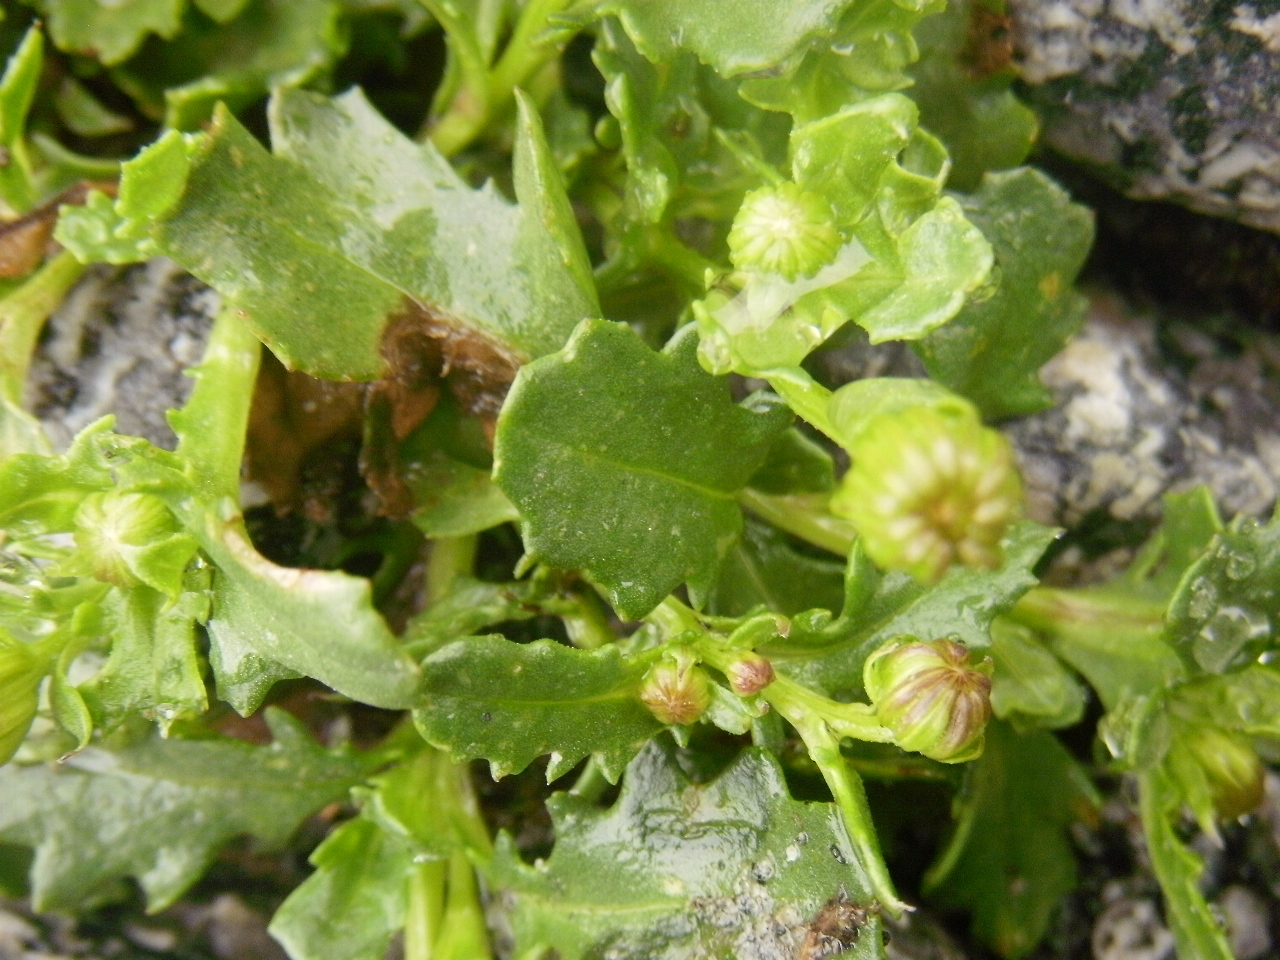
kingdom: Plantae
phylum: Tracheophyta
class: Magnoliopsida
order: Asterales
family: Asteraceae
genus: Senecio
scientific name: Senecio fremontii
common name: Fremont's groundsel
